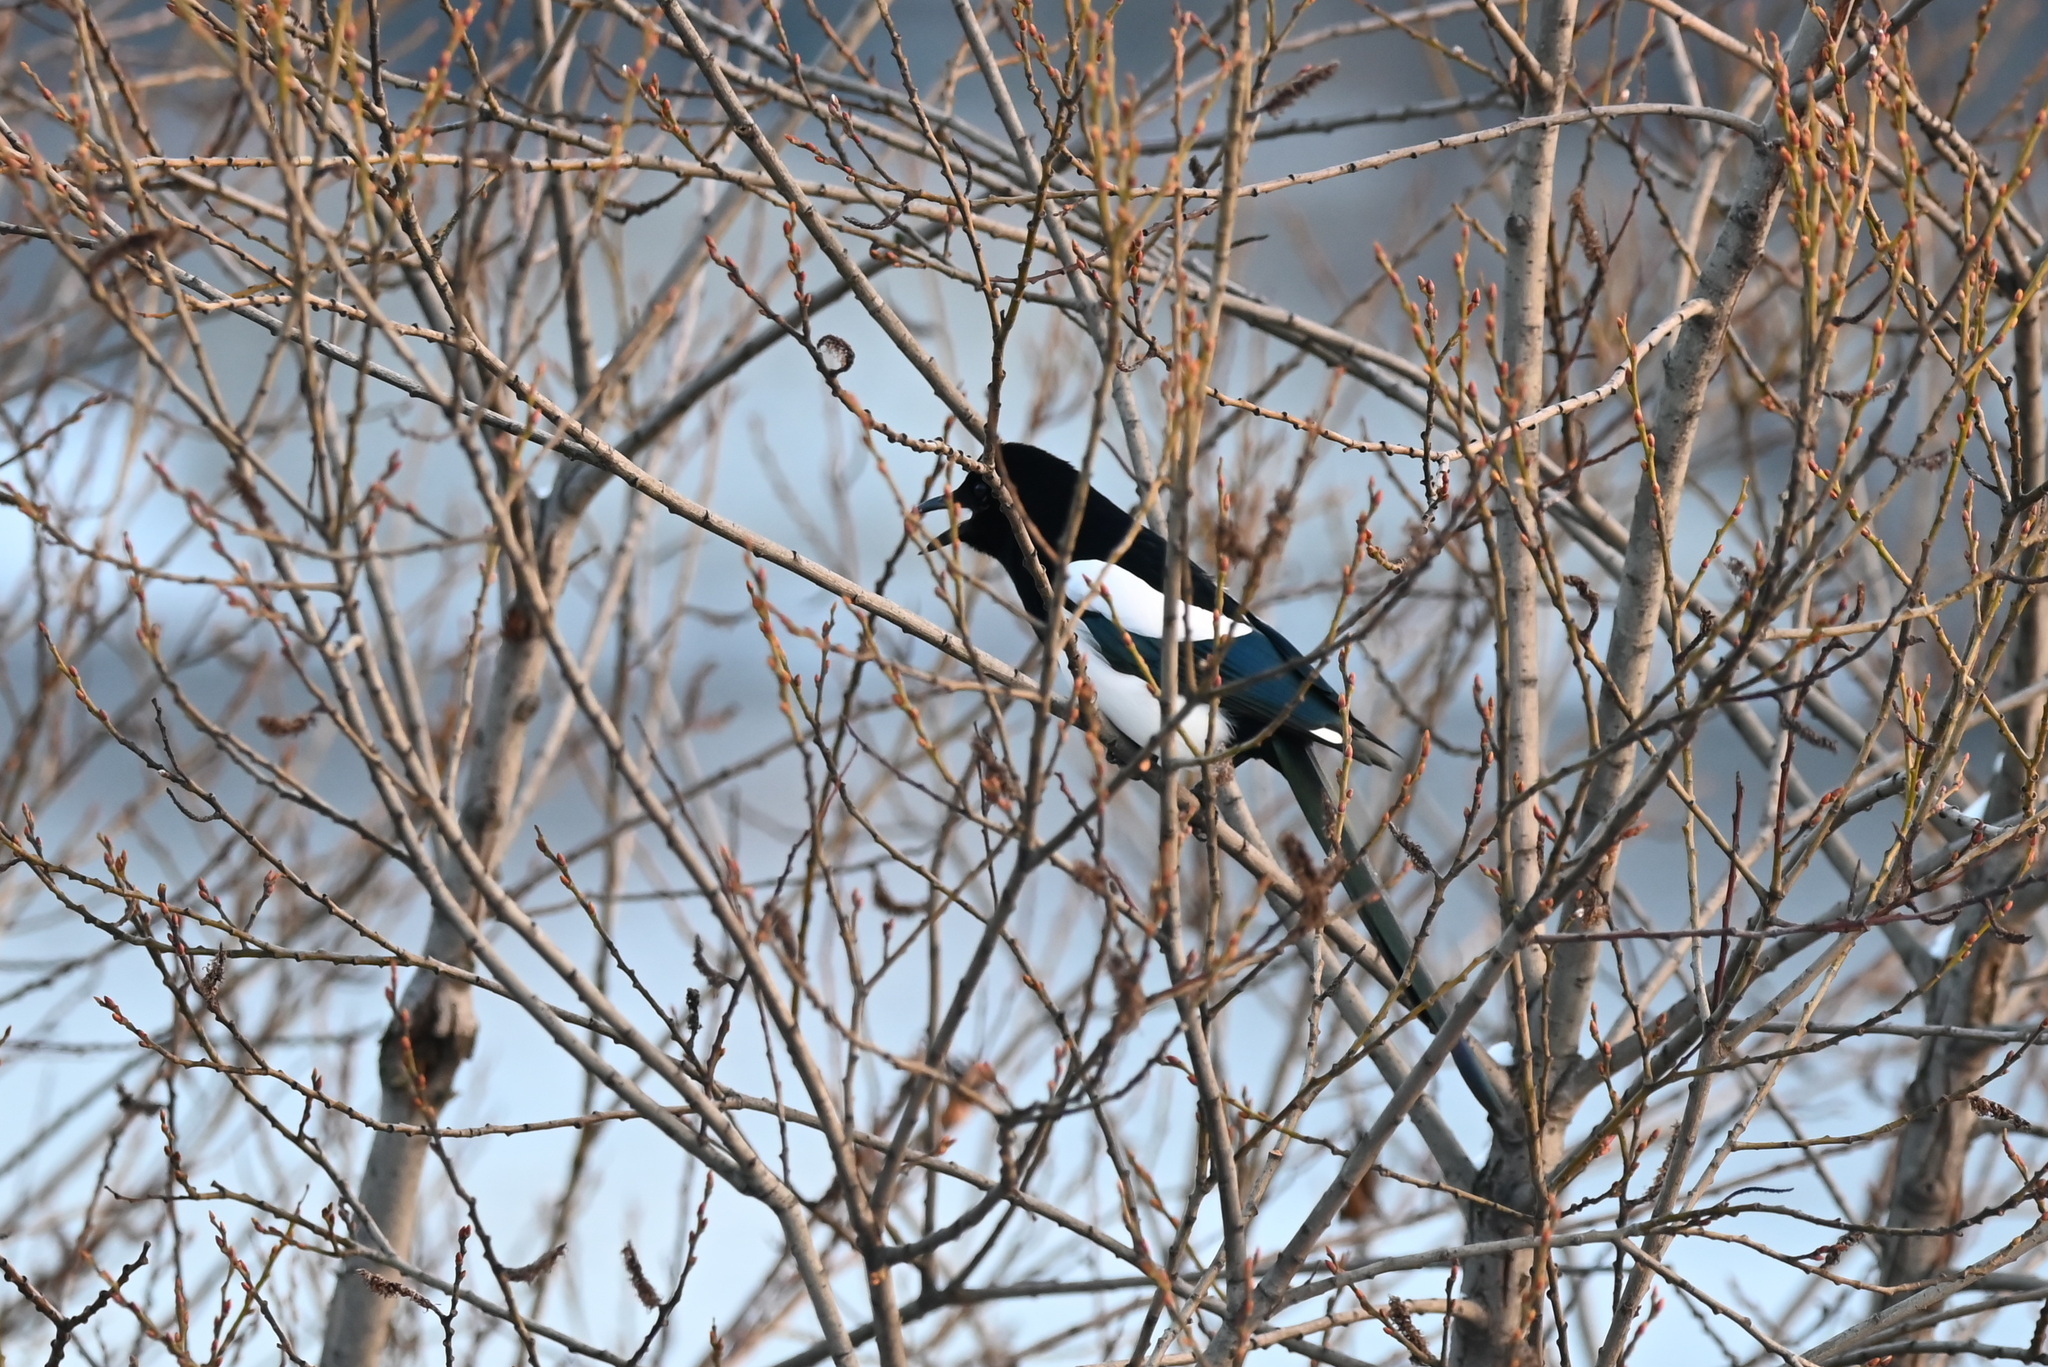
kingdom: Animalia
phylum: Chordata
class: Aves
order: Passeriformes
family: Corvidae
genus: Pica
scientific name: Pica pica
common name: Eurasian magpie
